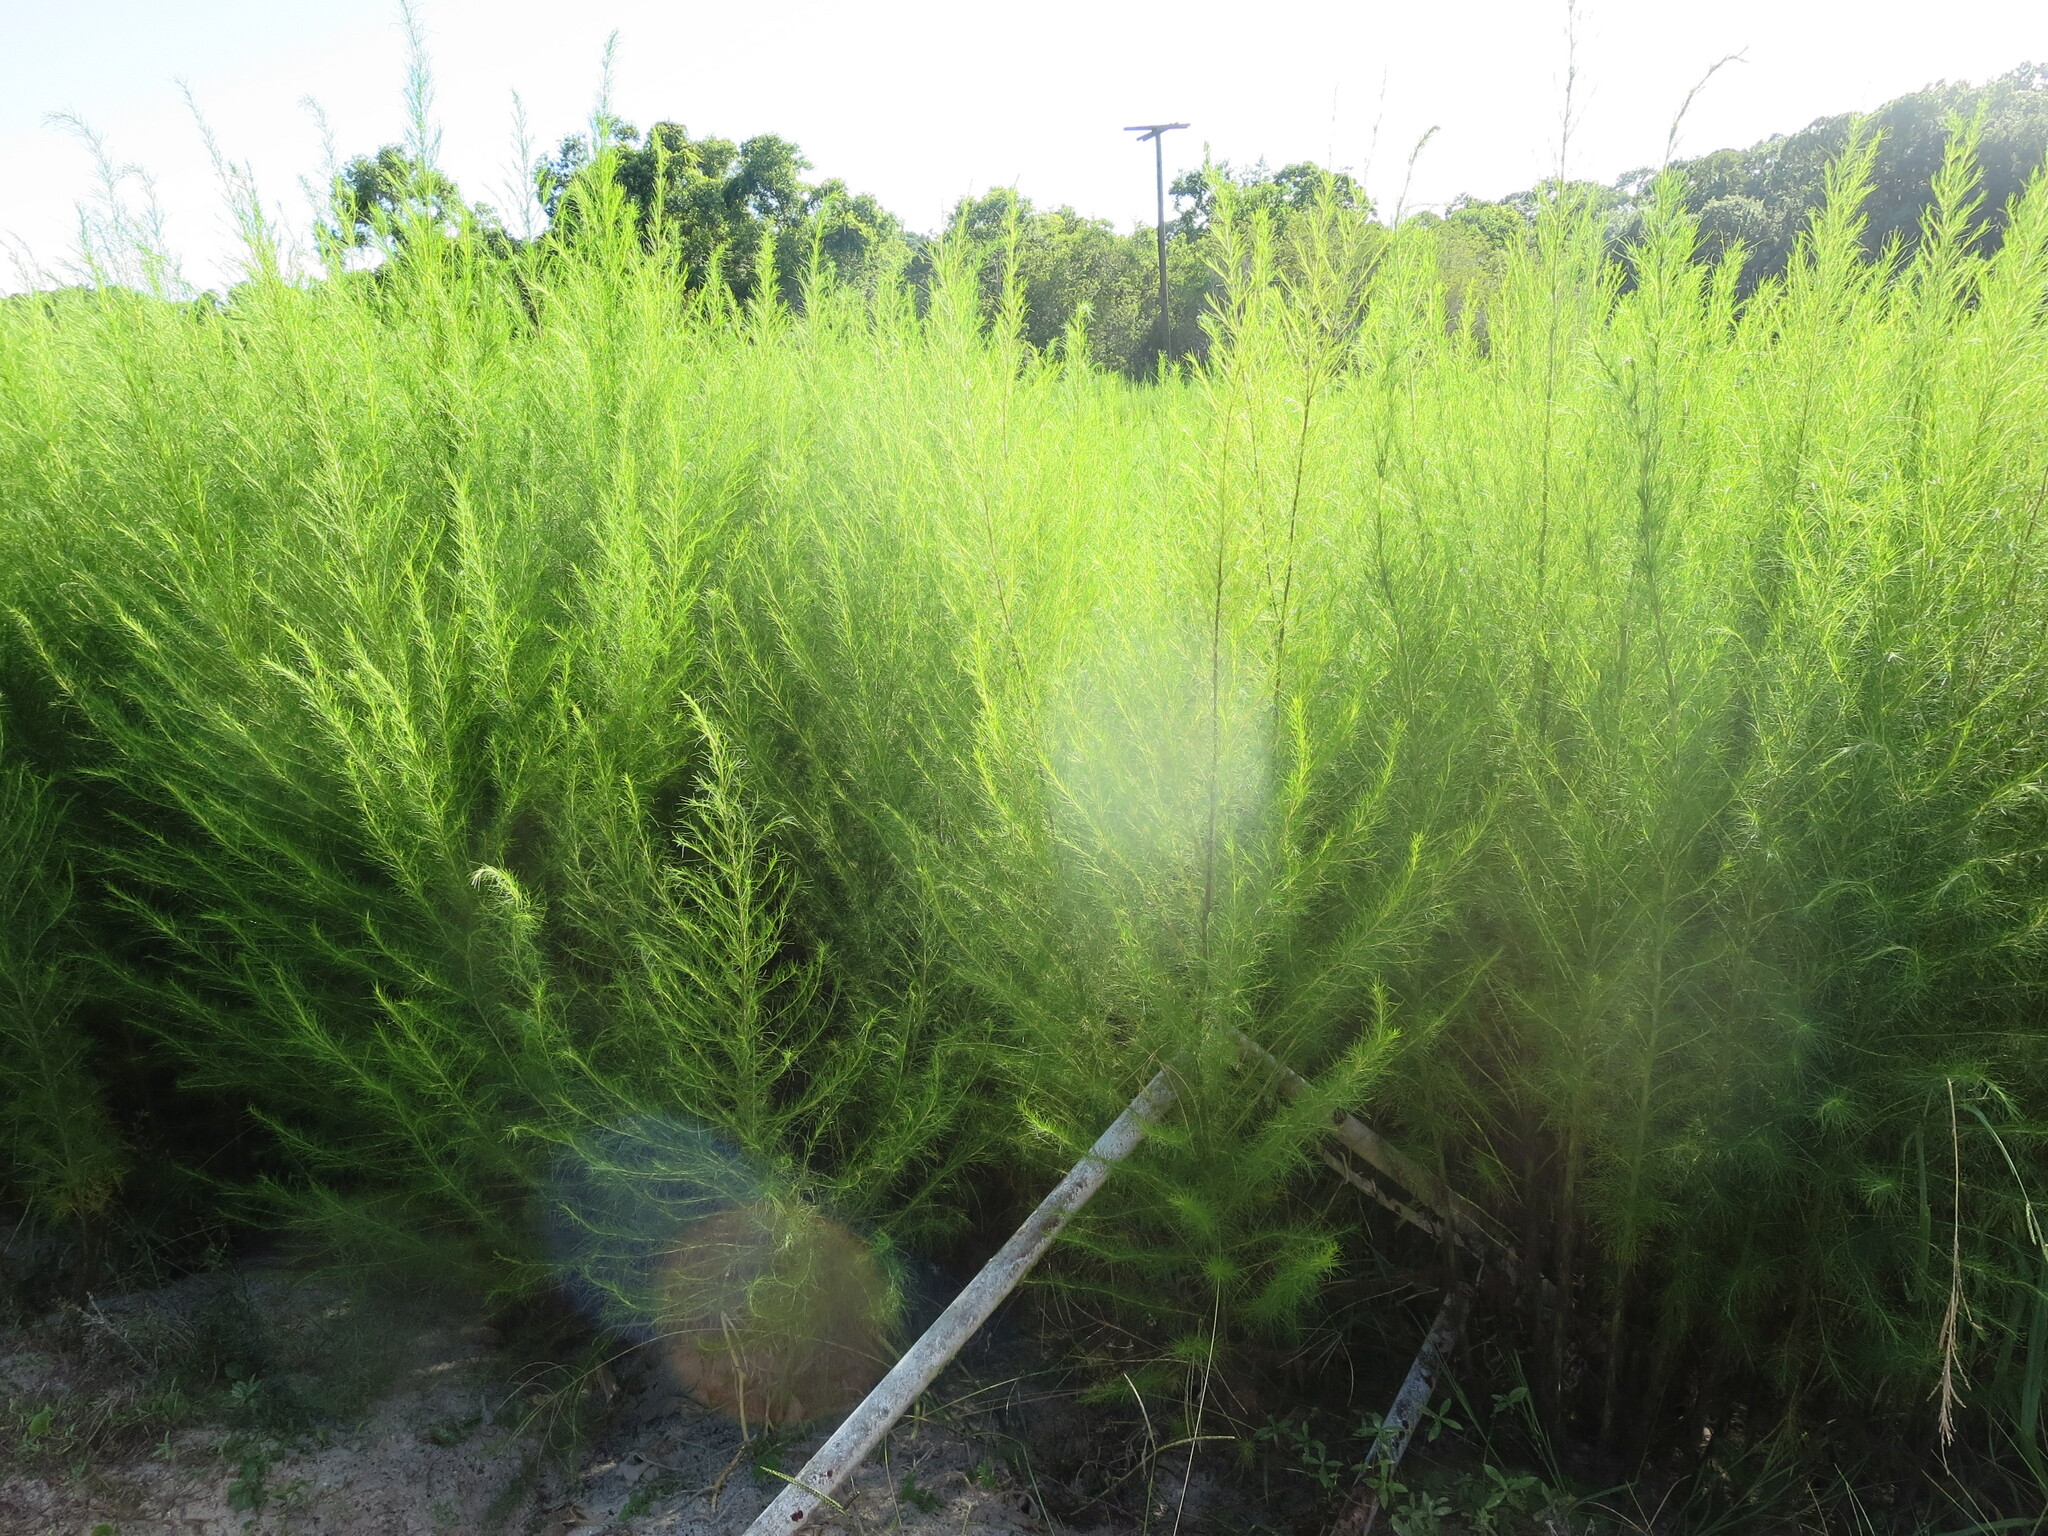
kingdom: Plantae
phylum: Tracheophyta
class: Magnoliopsida
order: Asterales
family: Asteraceae
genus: Eupatorium
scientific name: Eupatorium capillifolium
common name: Dog-fennel
